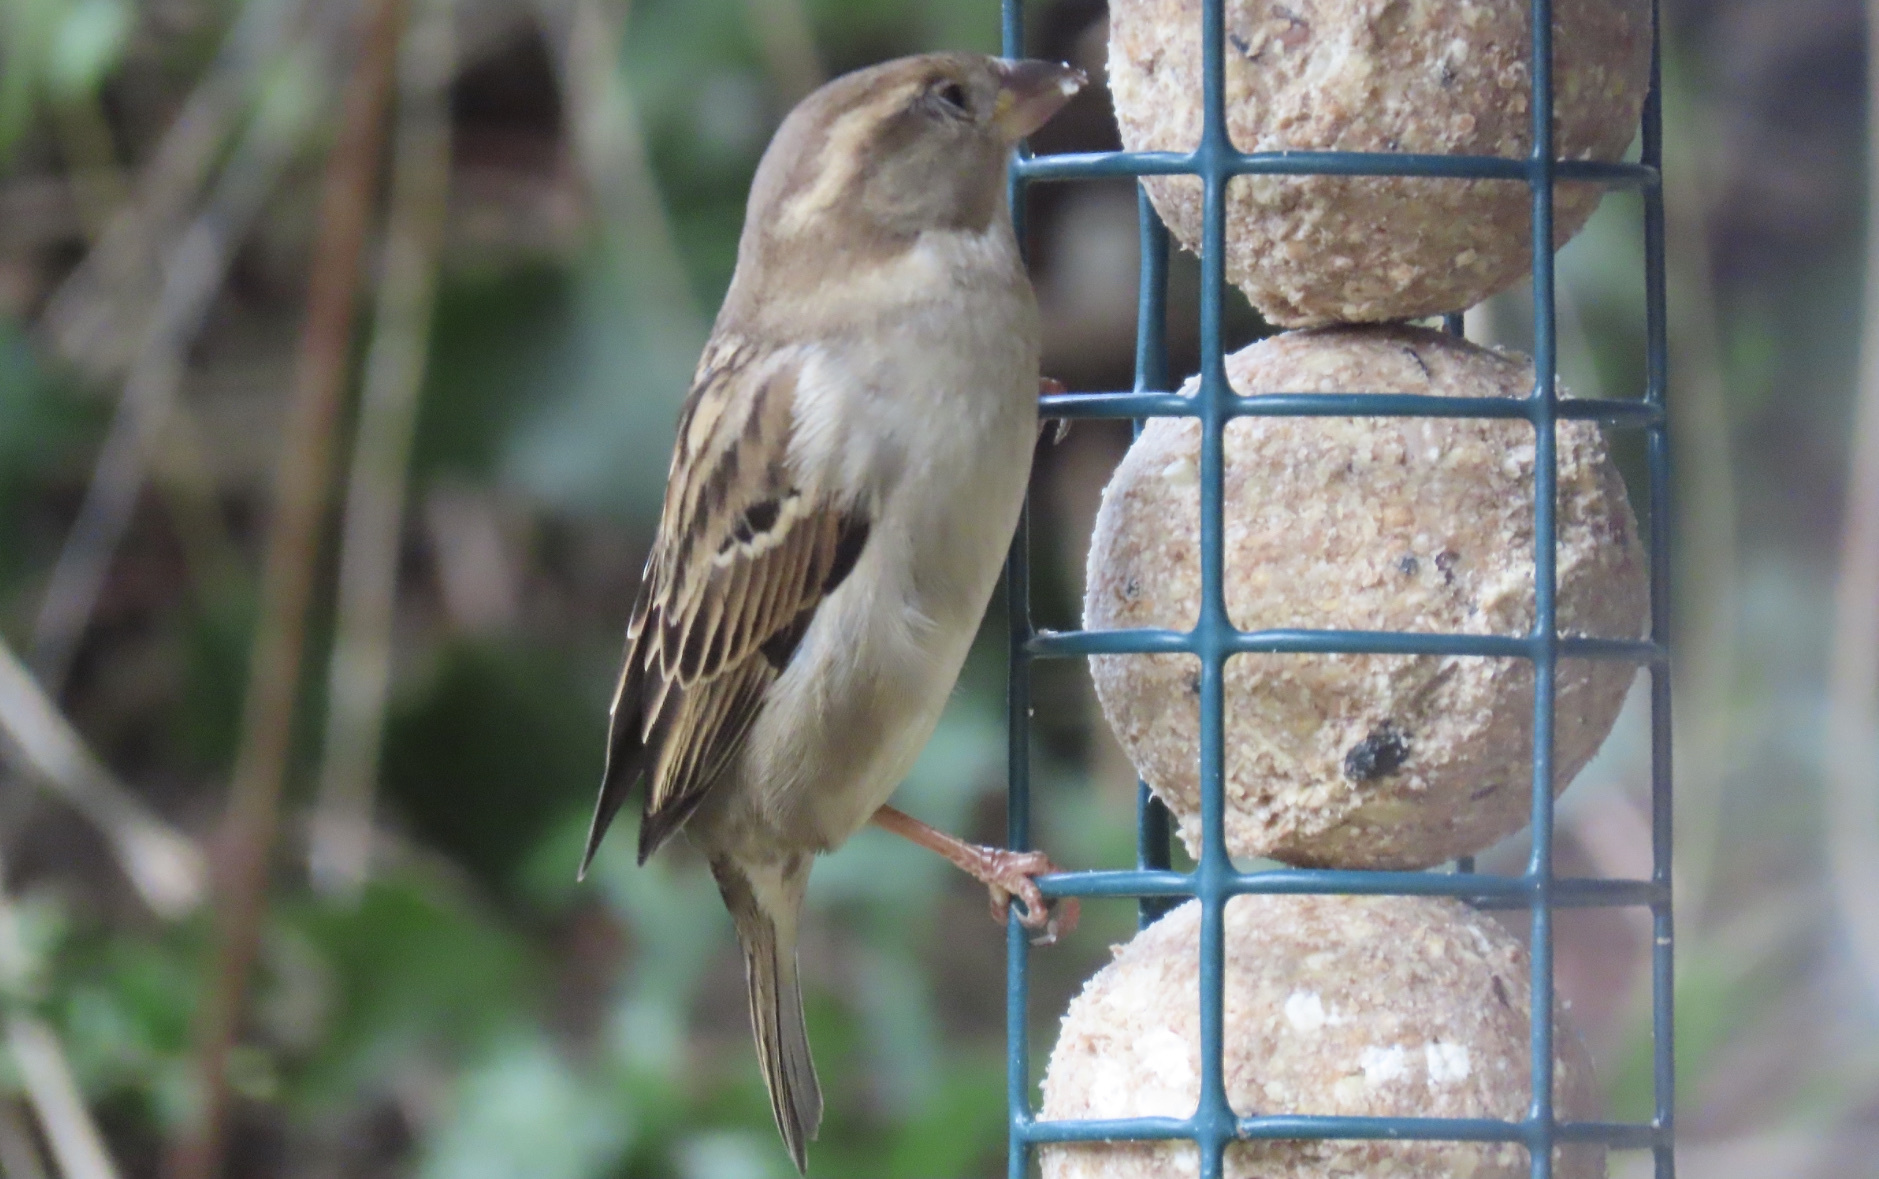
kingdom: Animalia
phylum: Chordata
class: Aves
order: Passeriformes
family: Passeridae
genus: Passer
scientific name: Passer domesticus
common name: House sparrow
